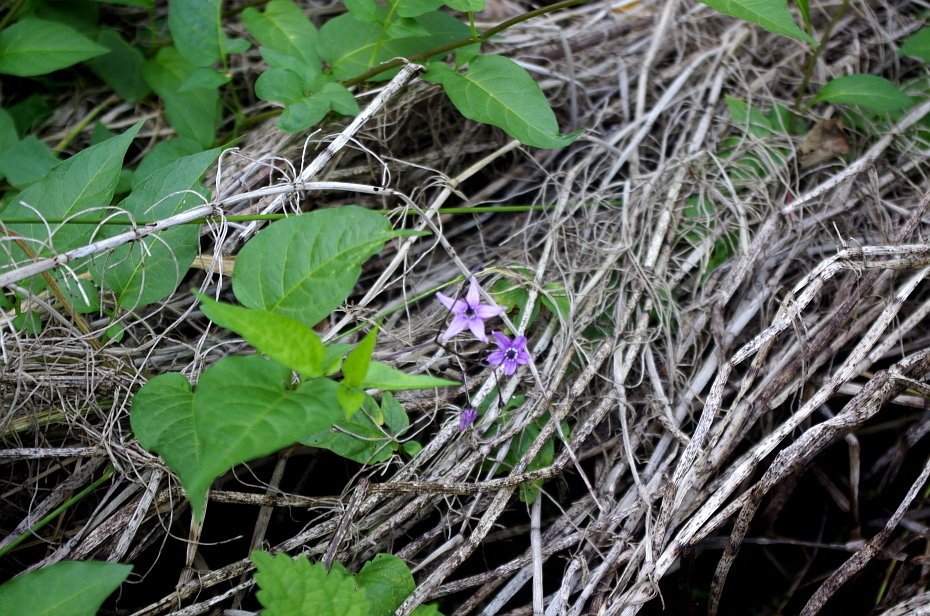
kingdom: Plantae
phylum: Tracheophyta
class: Magnoliopsida
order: Solanales
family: Solanaceae
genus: Solanum
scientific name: Solanum dulcamara
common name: Climbing nightshade
